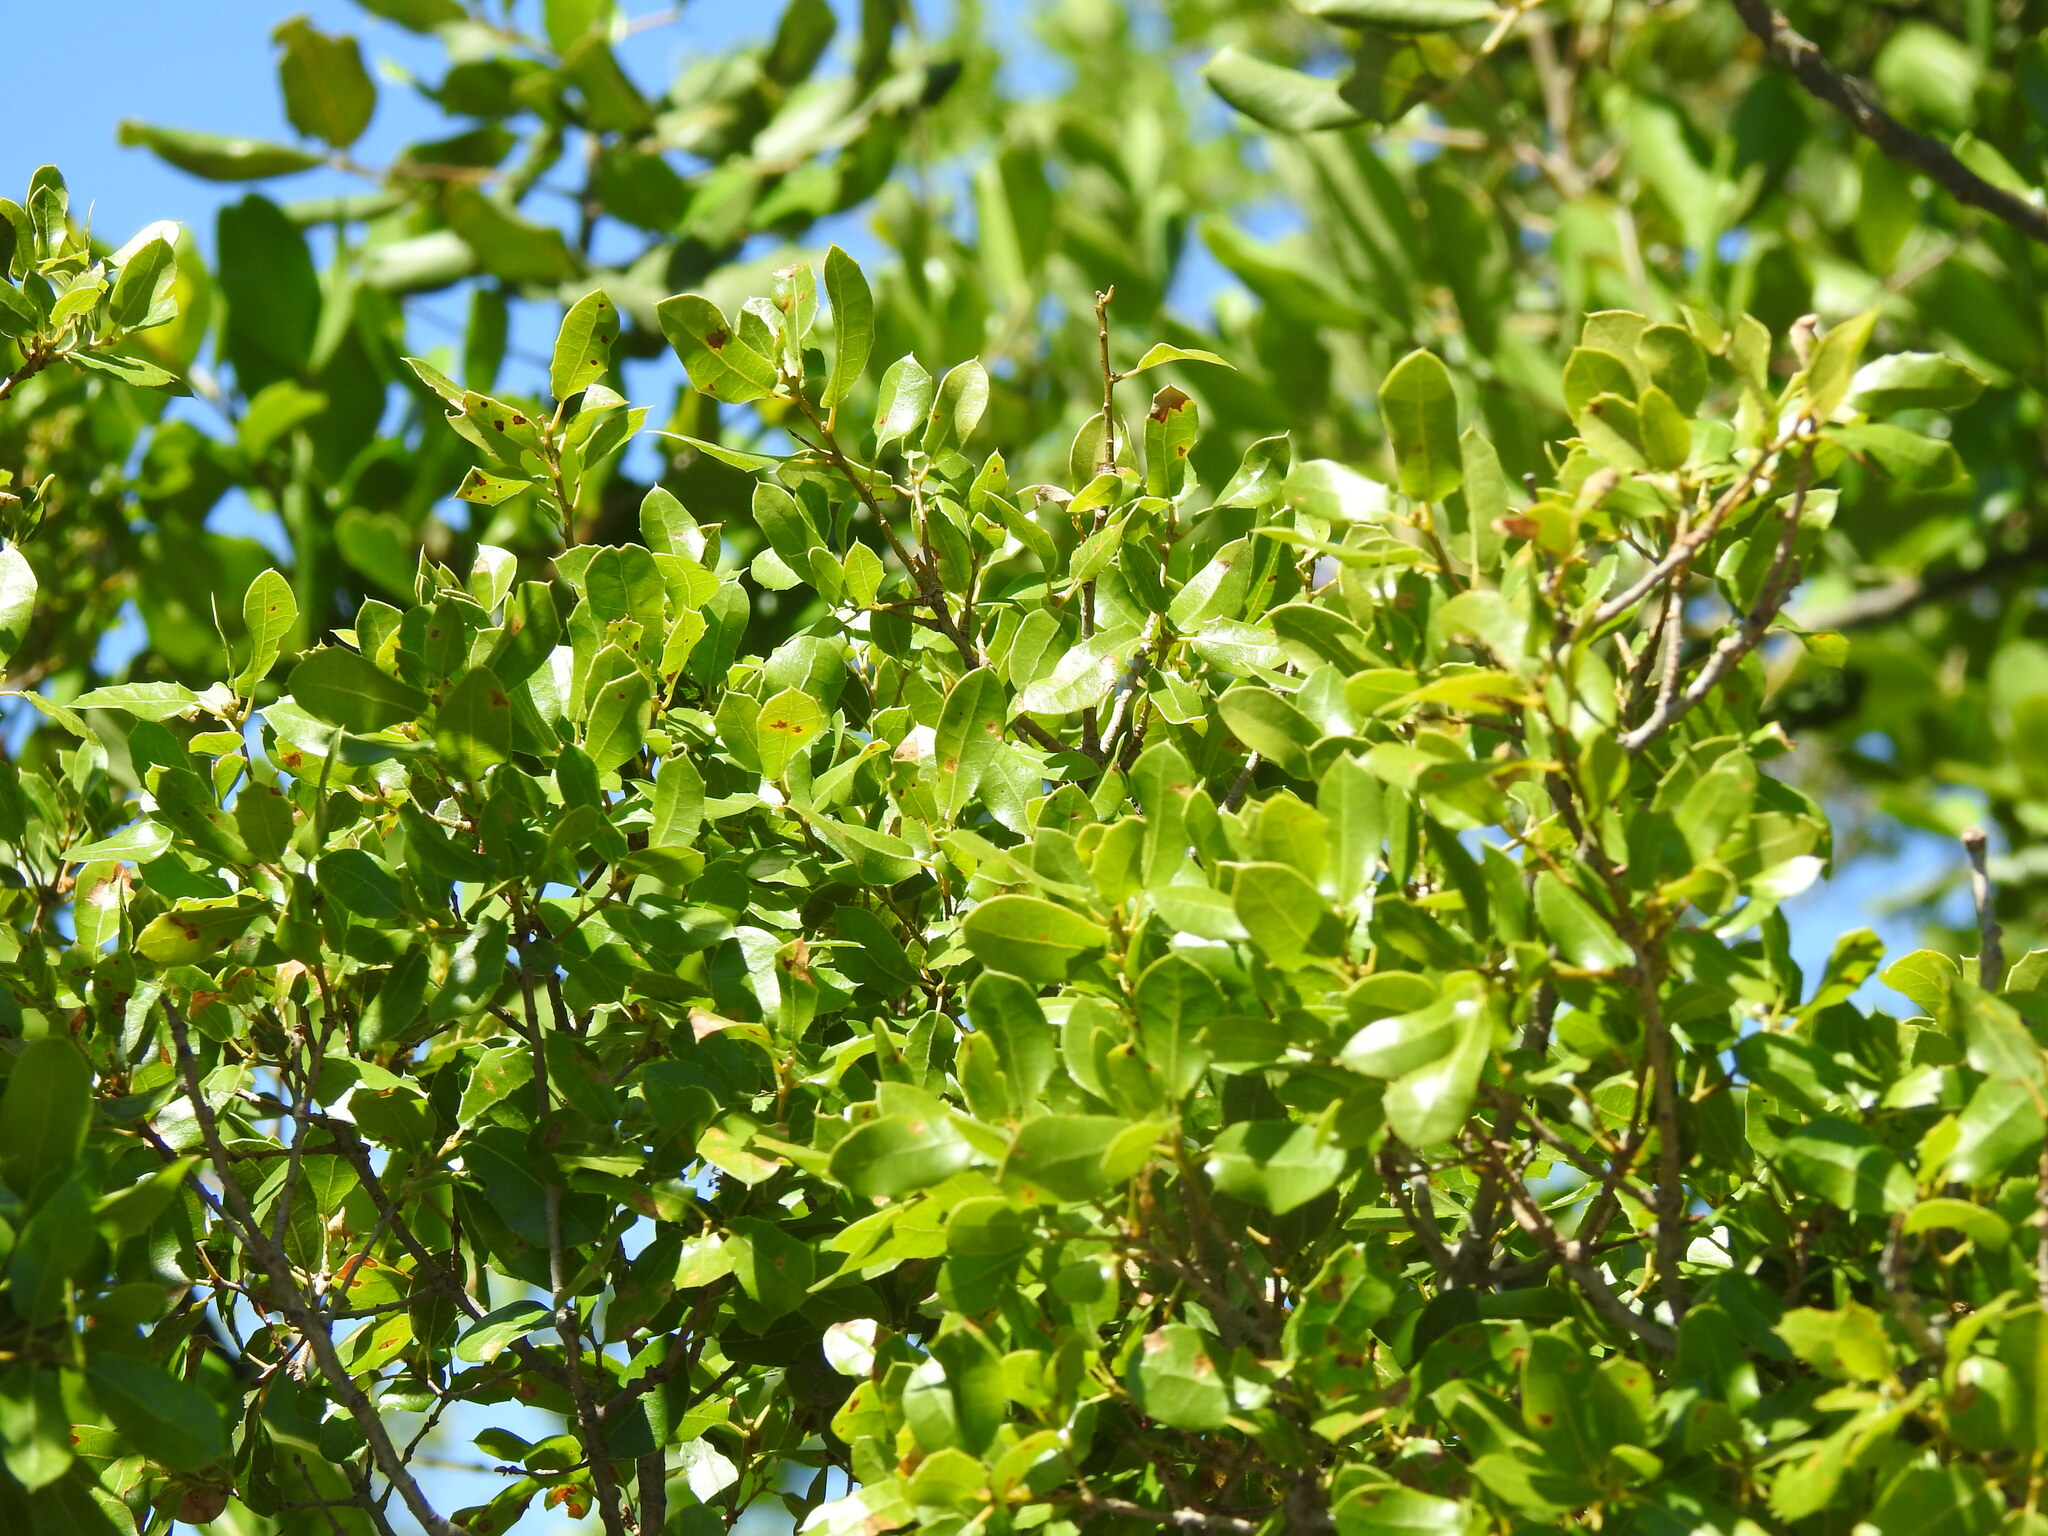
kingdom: Plantae
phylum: Tracheophyta
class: Magnoliopsida
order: Fagales
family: Fagaceae
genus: Quercus
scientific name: Quercus coccifera
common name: Kermes oak
